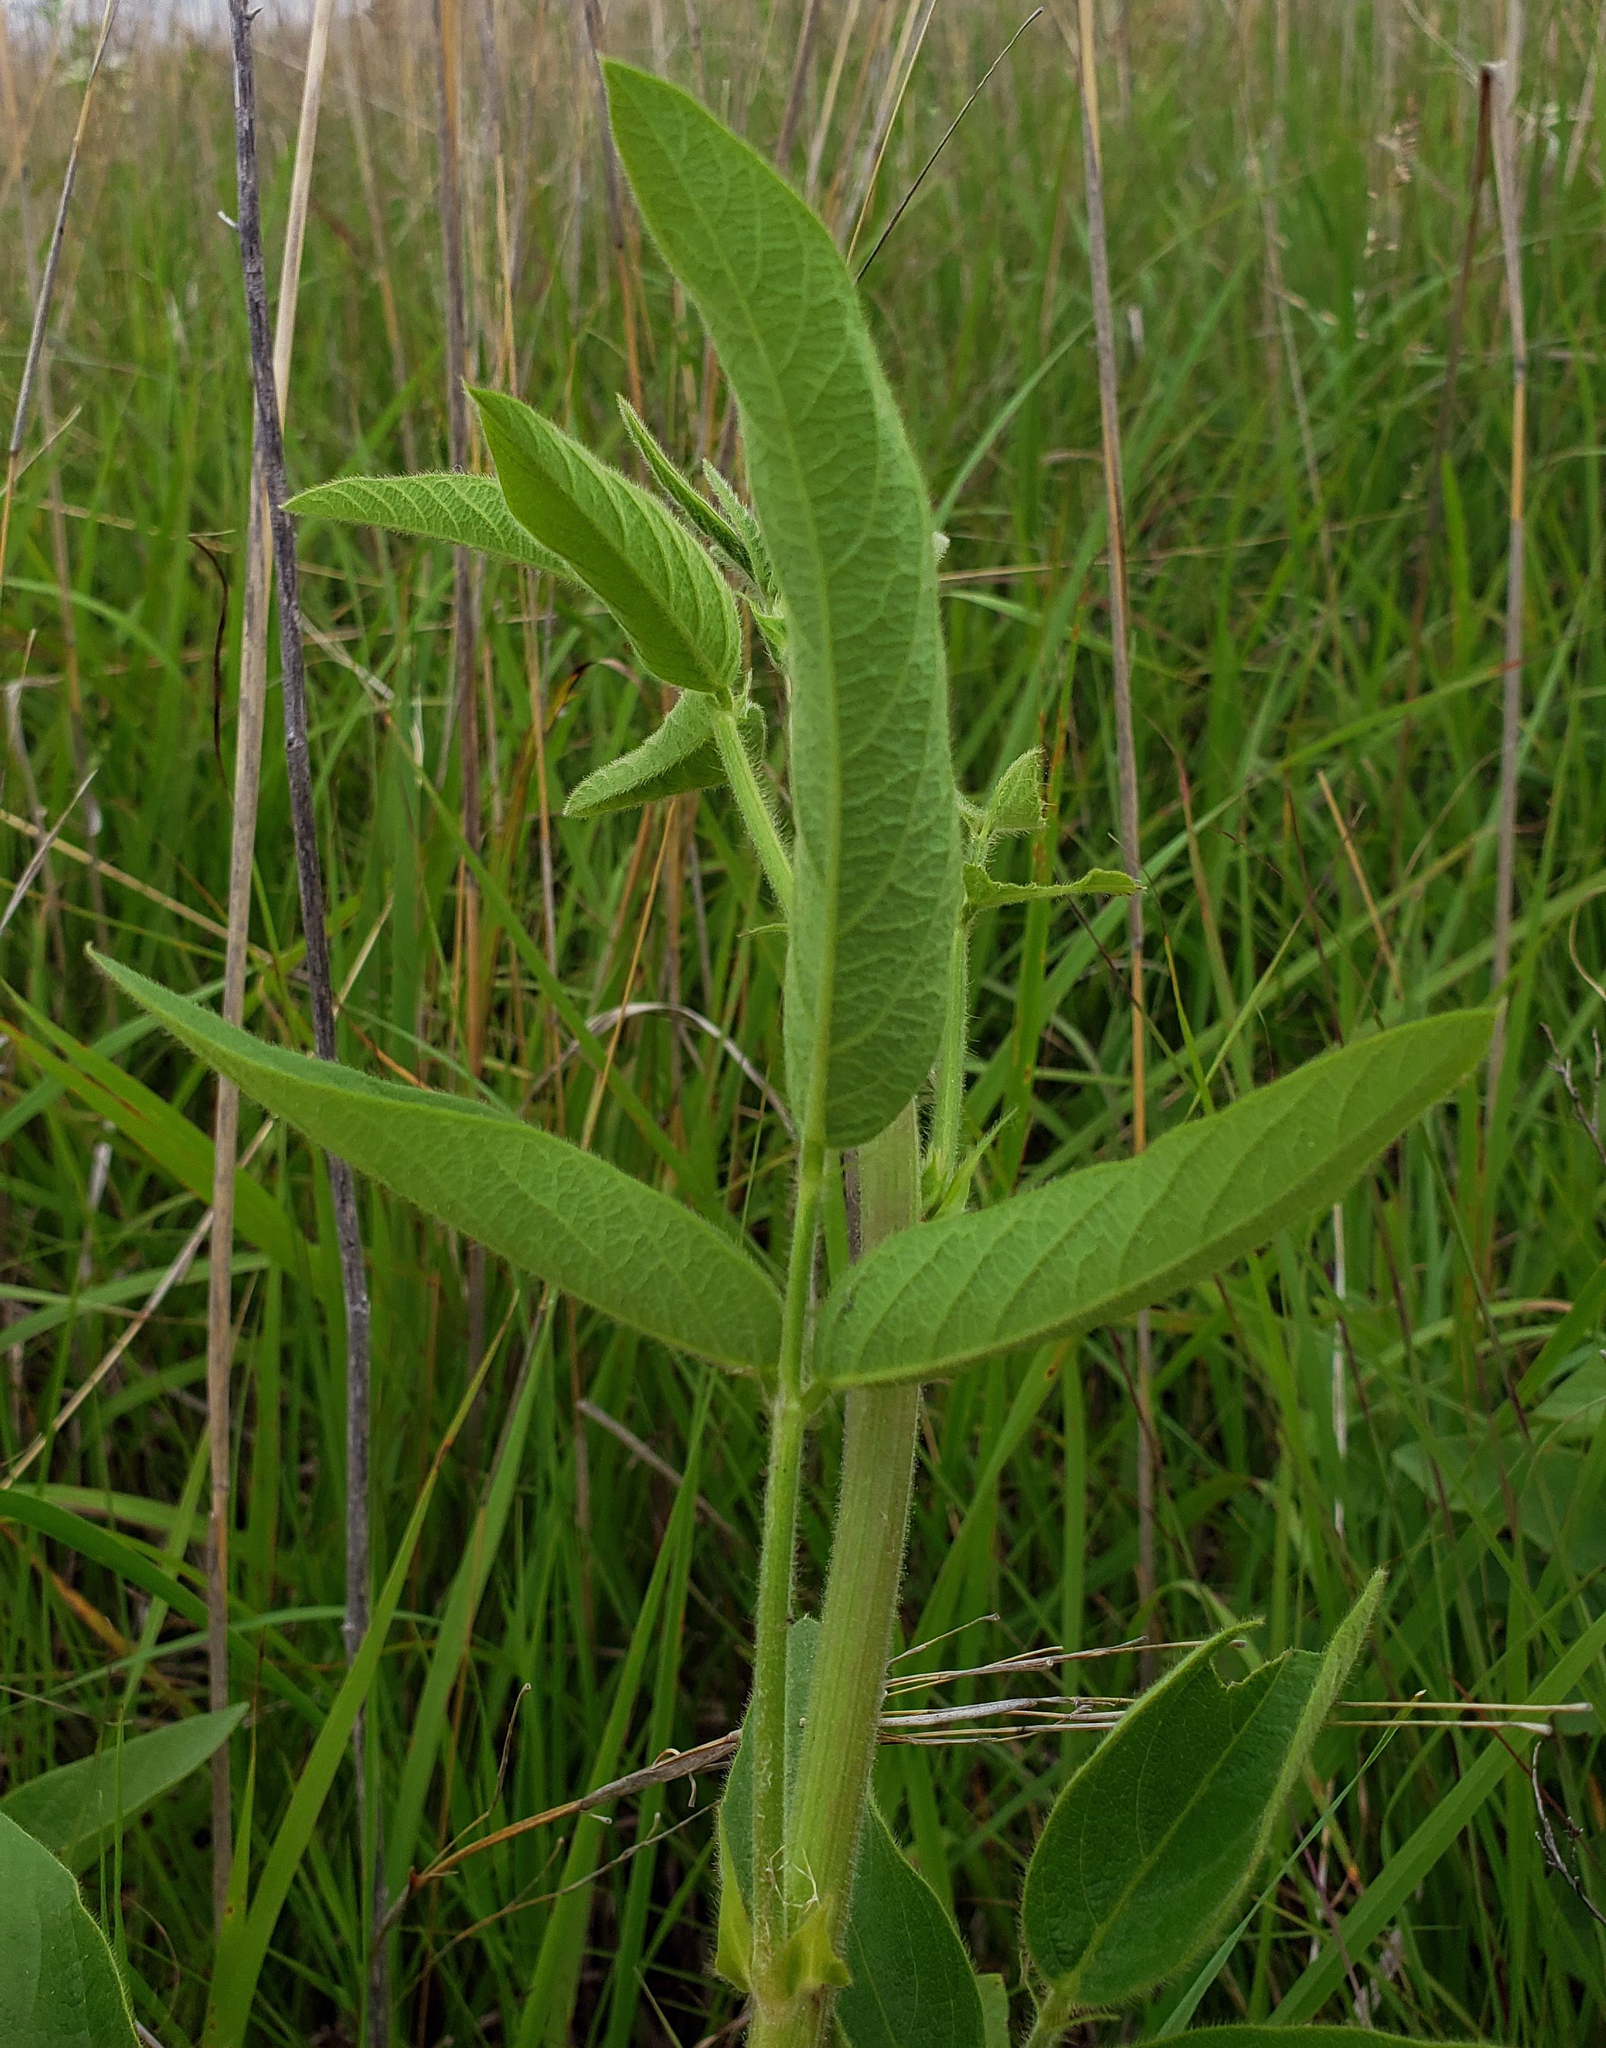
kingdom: Plantae
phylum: Tracheophyta
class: Magnoliopsida
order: Fabales
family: Fabaceae
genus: Desmodium
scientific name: Desmodium illinoense
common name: Illinois tick-clover
